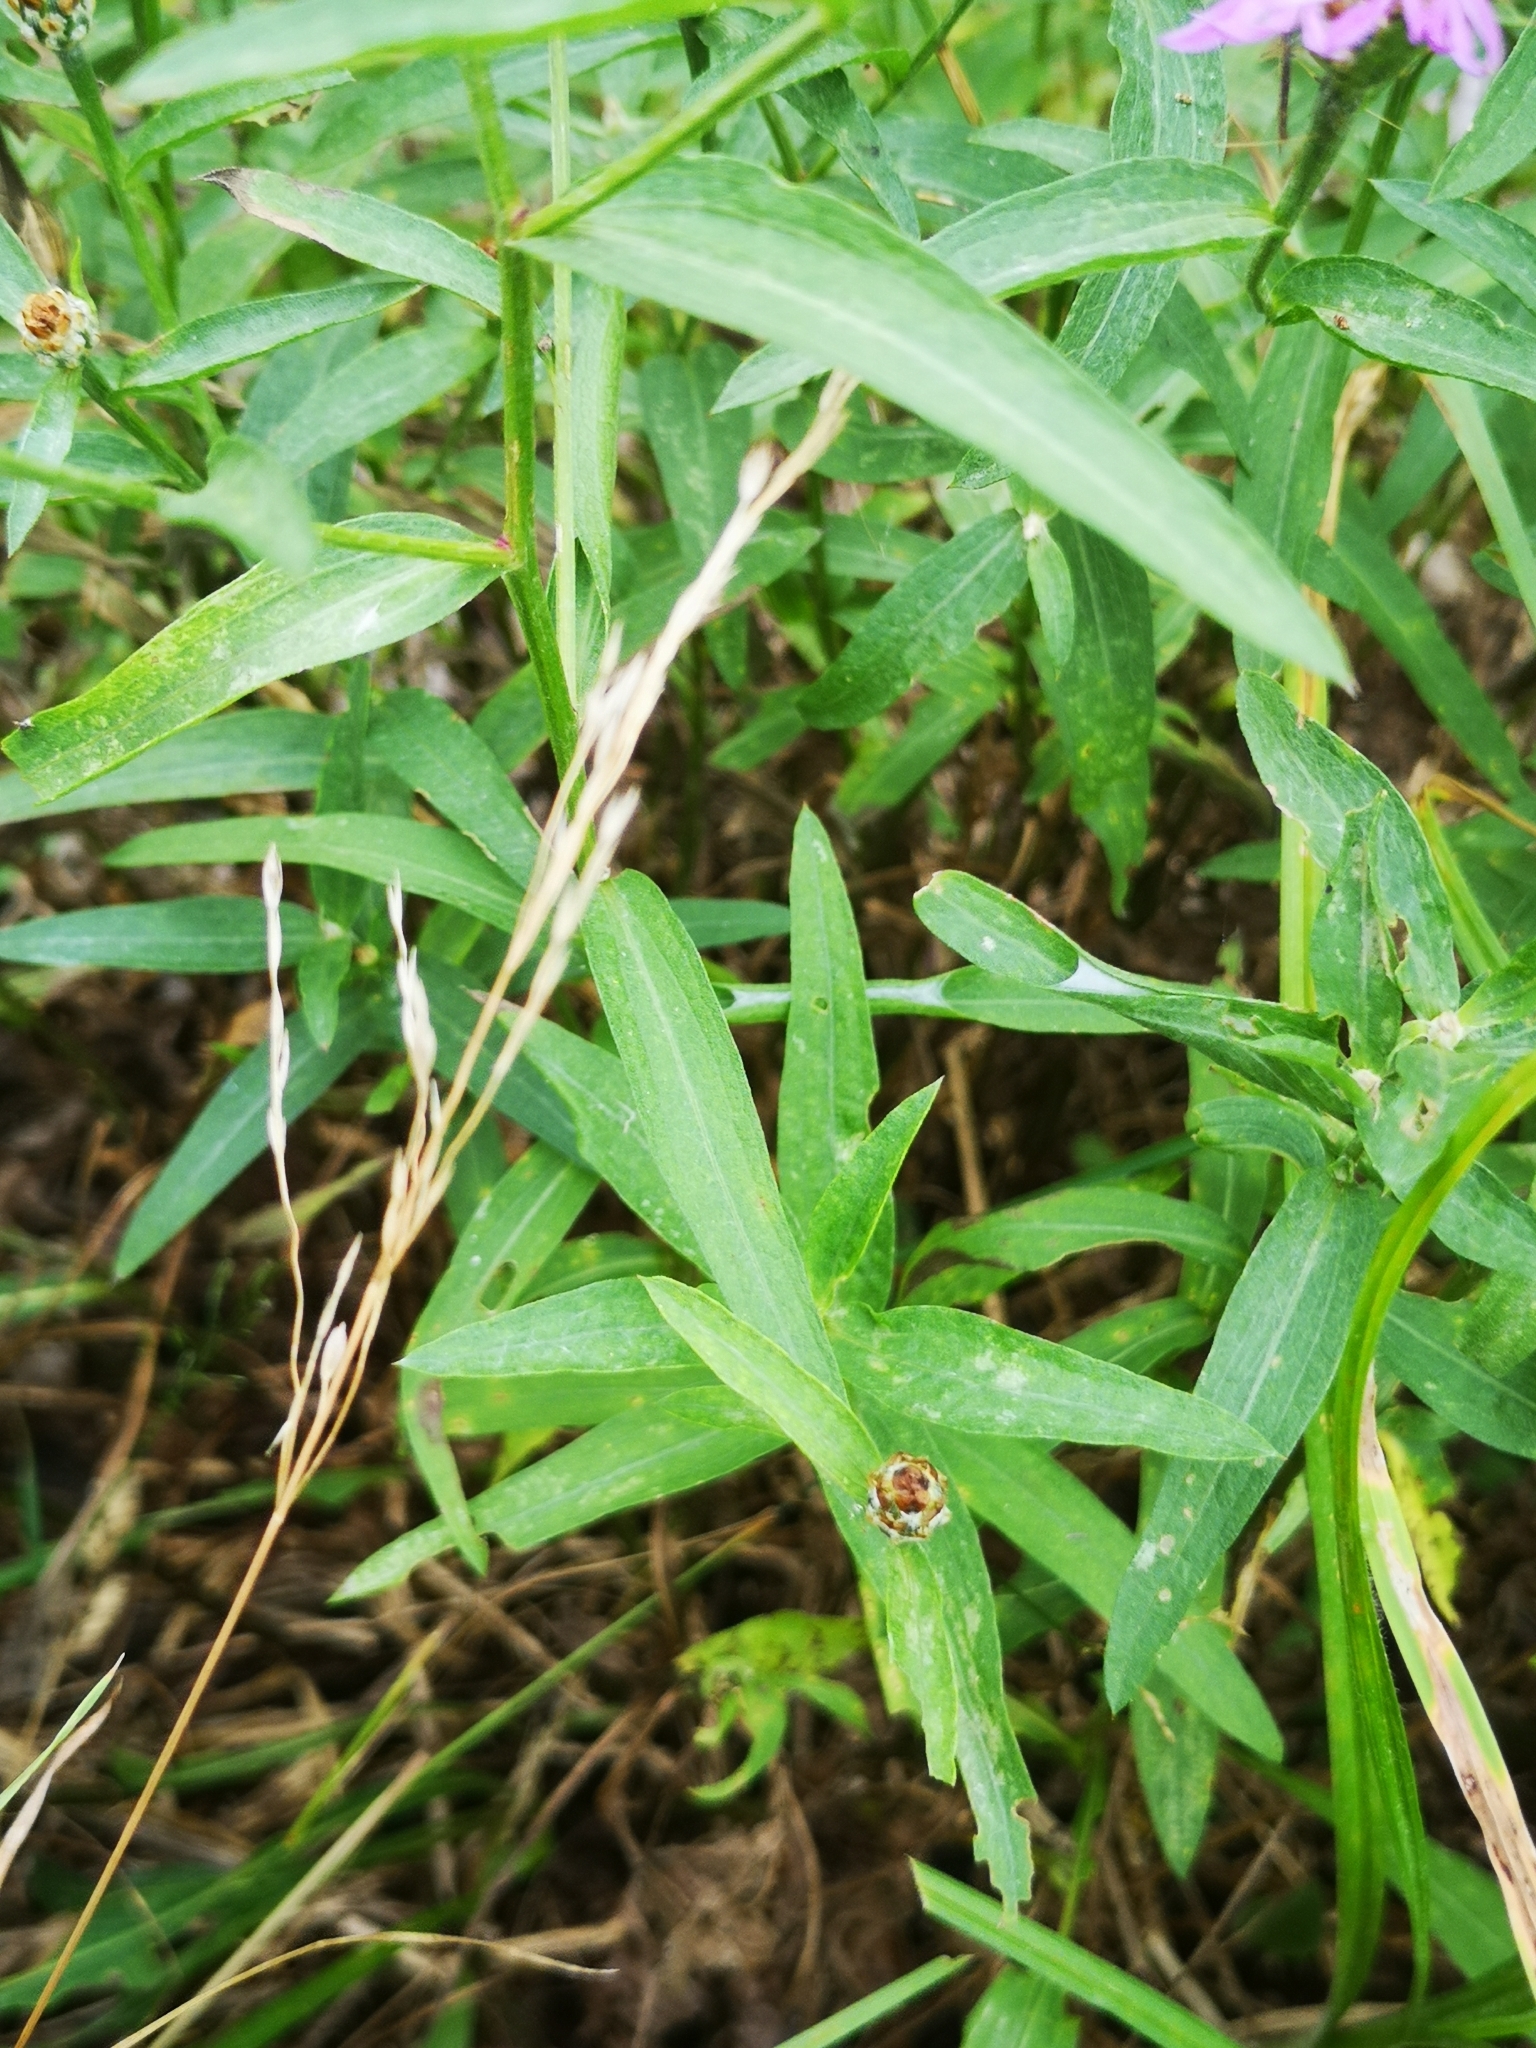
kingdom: Plantae
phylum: Tracheophyta
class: Magnoliopsida
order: Asterales
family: Asteraceae
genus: Centaurea
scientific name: Centaurea jacea
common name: Brown knapweed
